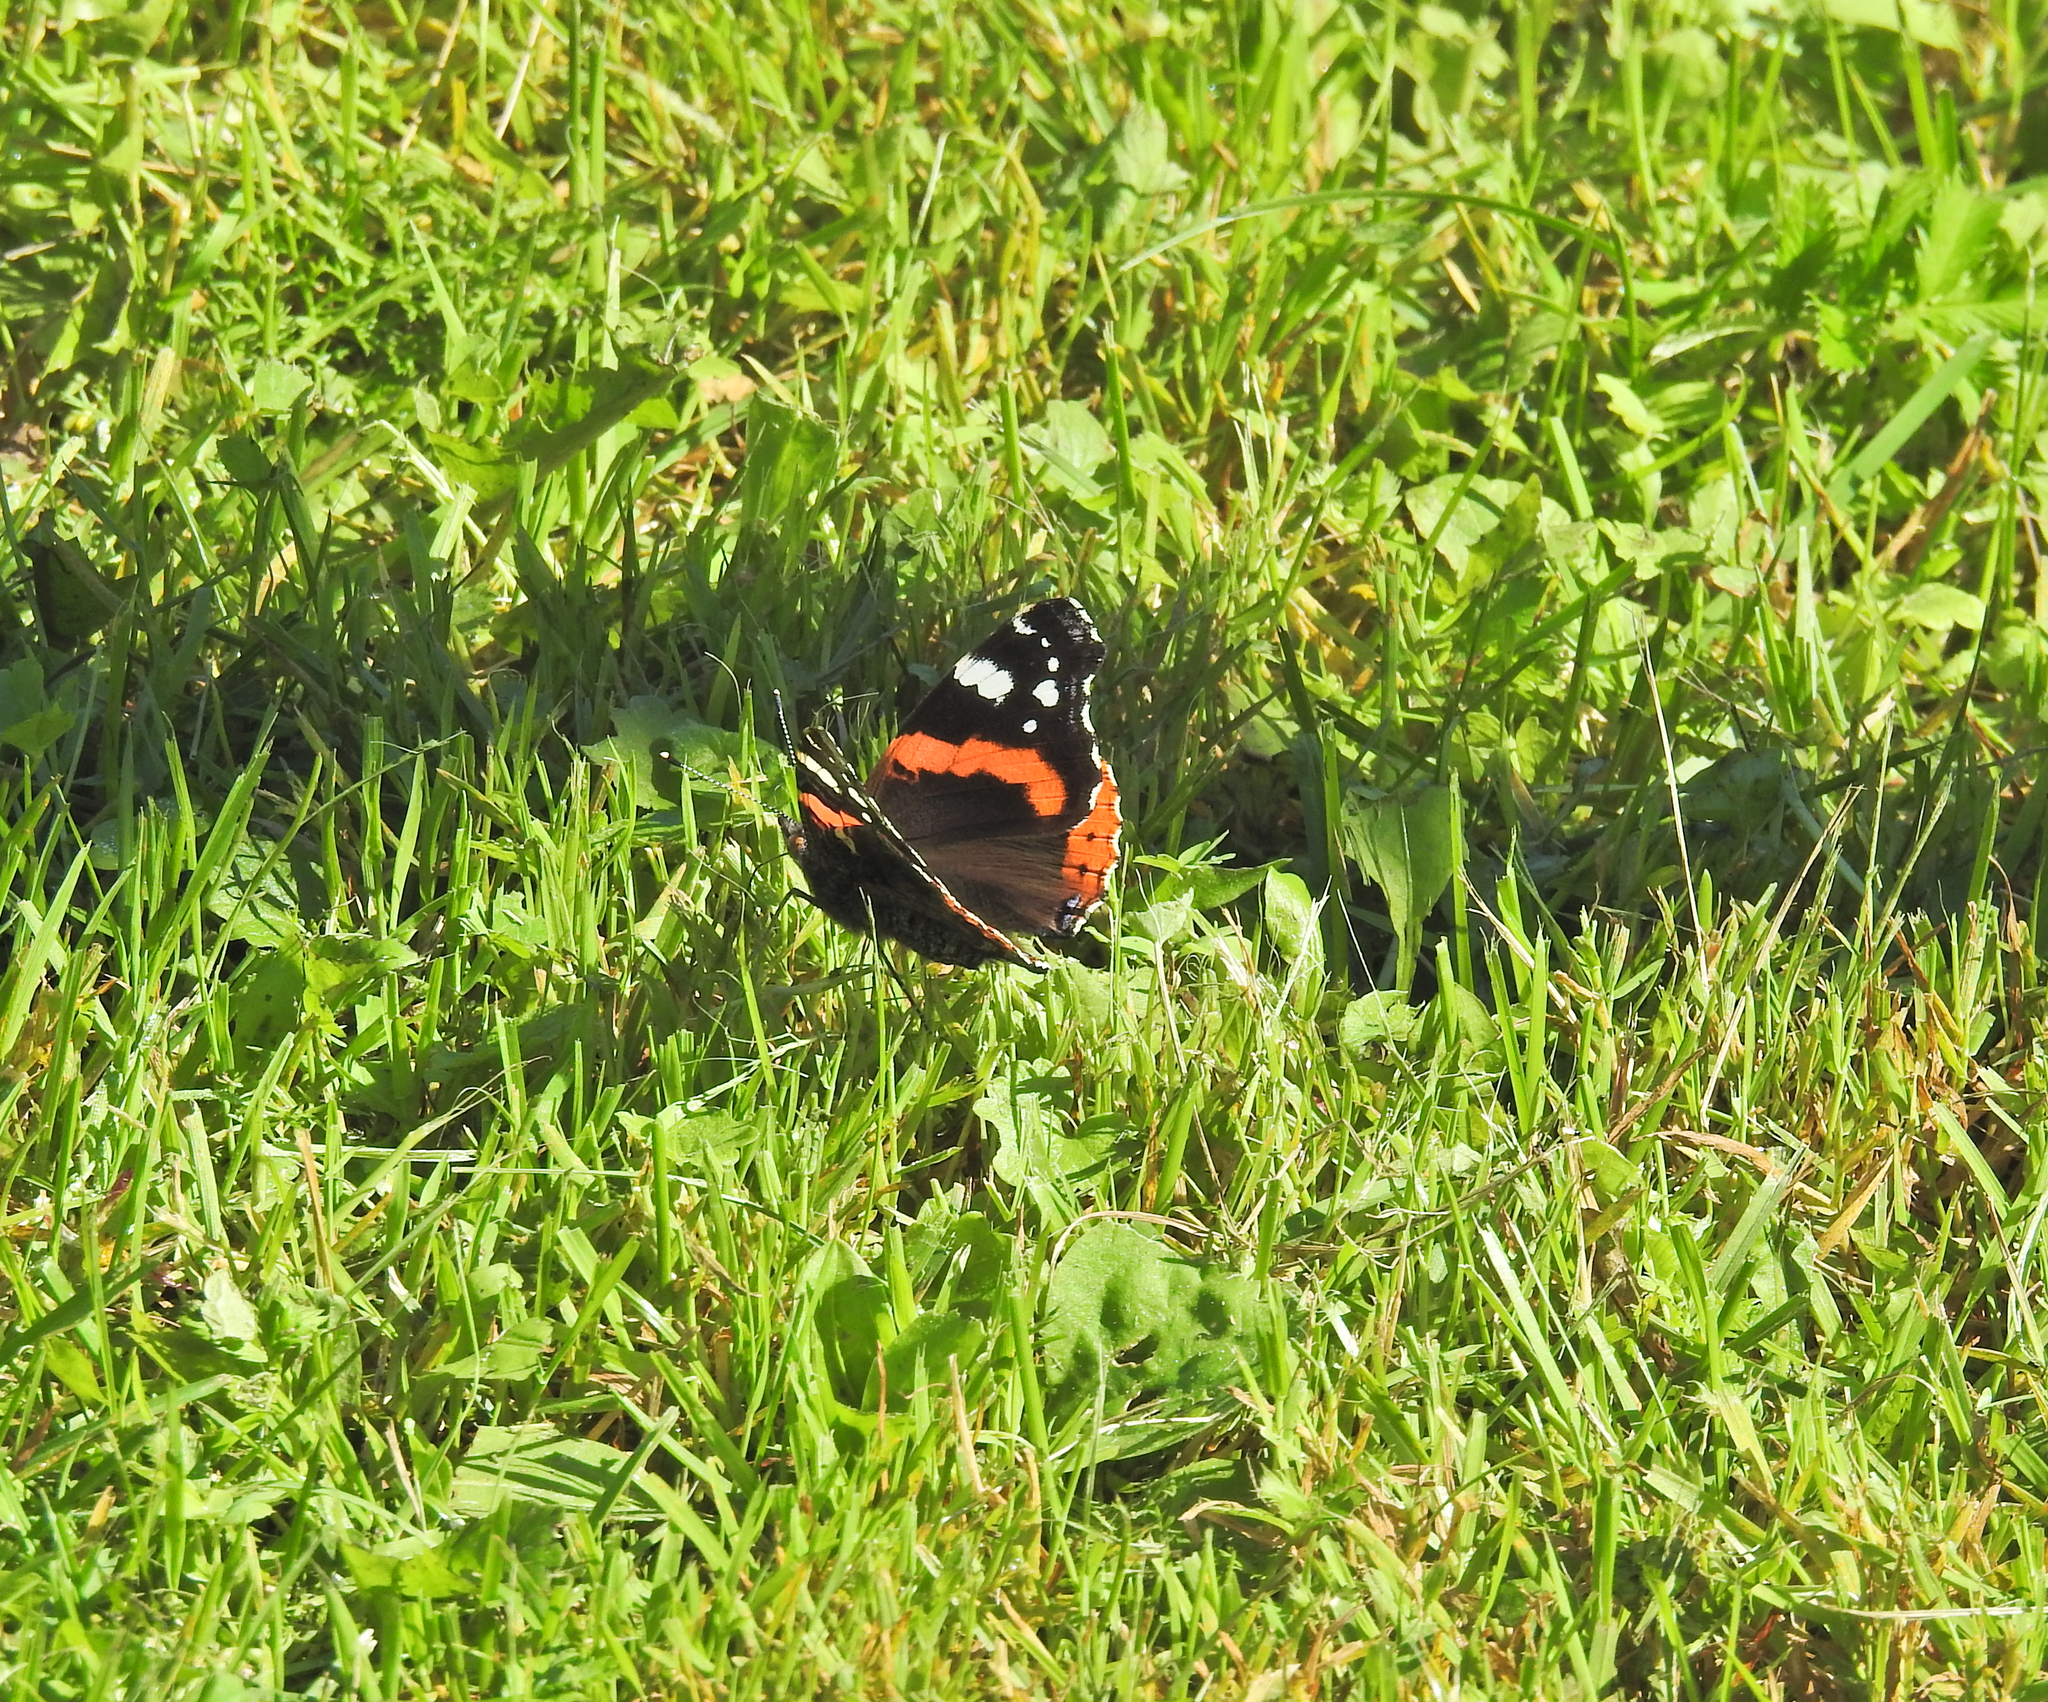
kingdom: Animalia
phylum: Arthropoda
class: Insecta
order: Lepidoptera
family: Nymphalidae
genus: Vanessa
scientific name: Vanessa atalanta
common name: Red admiral
